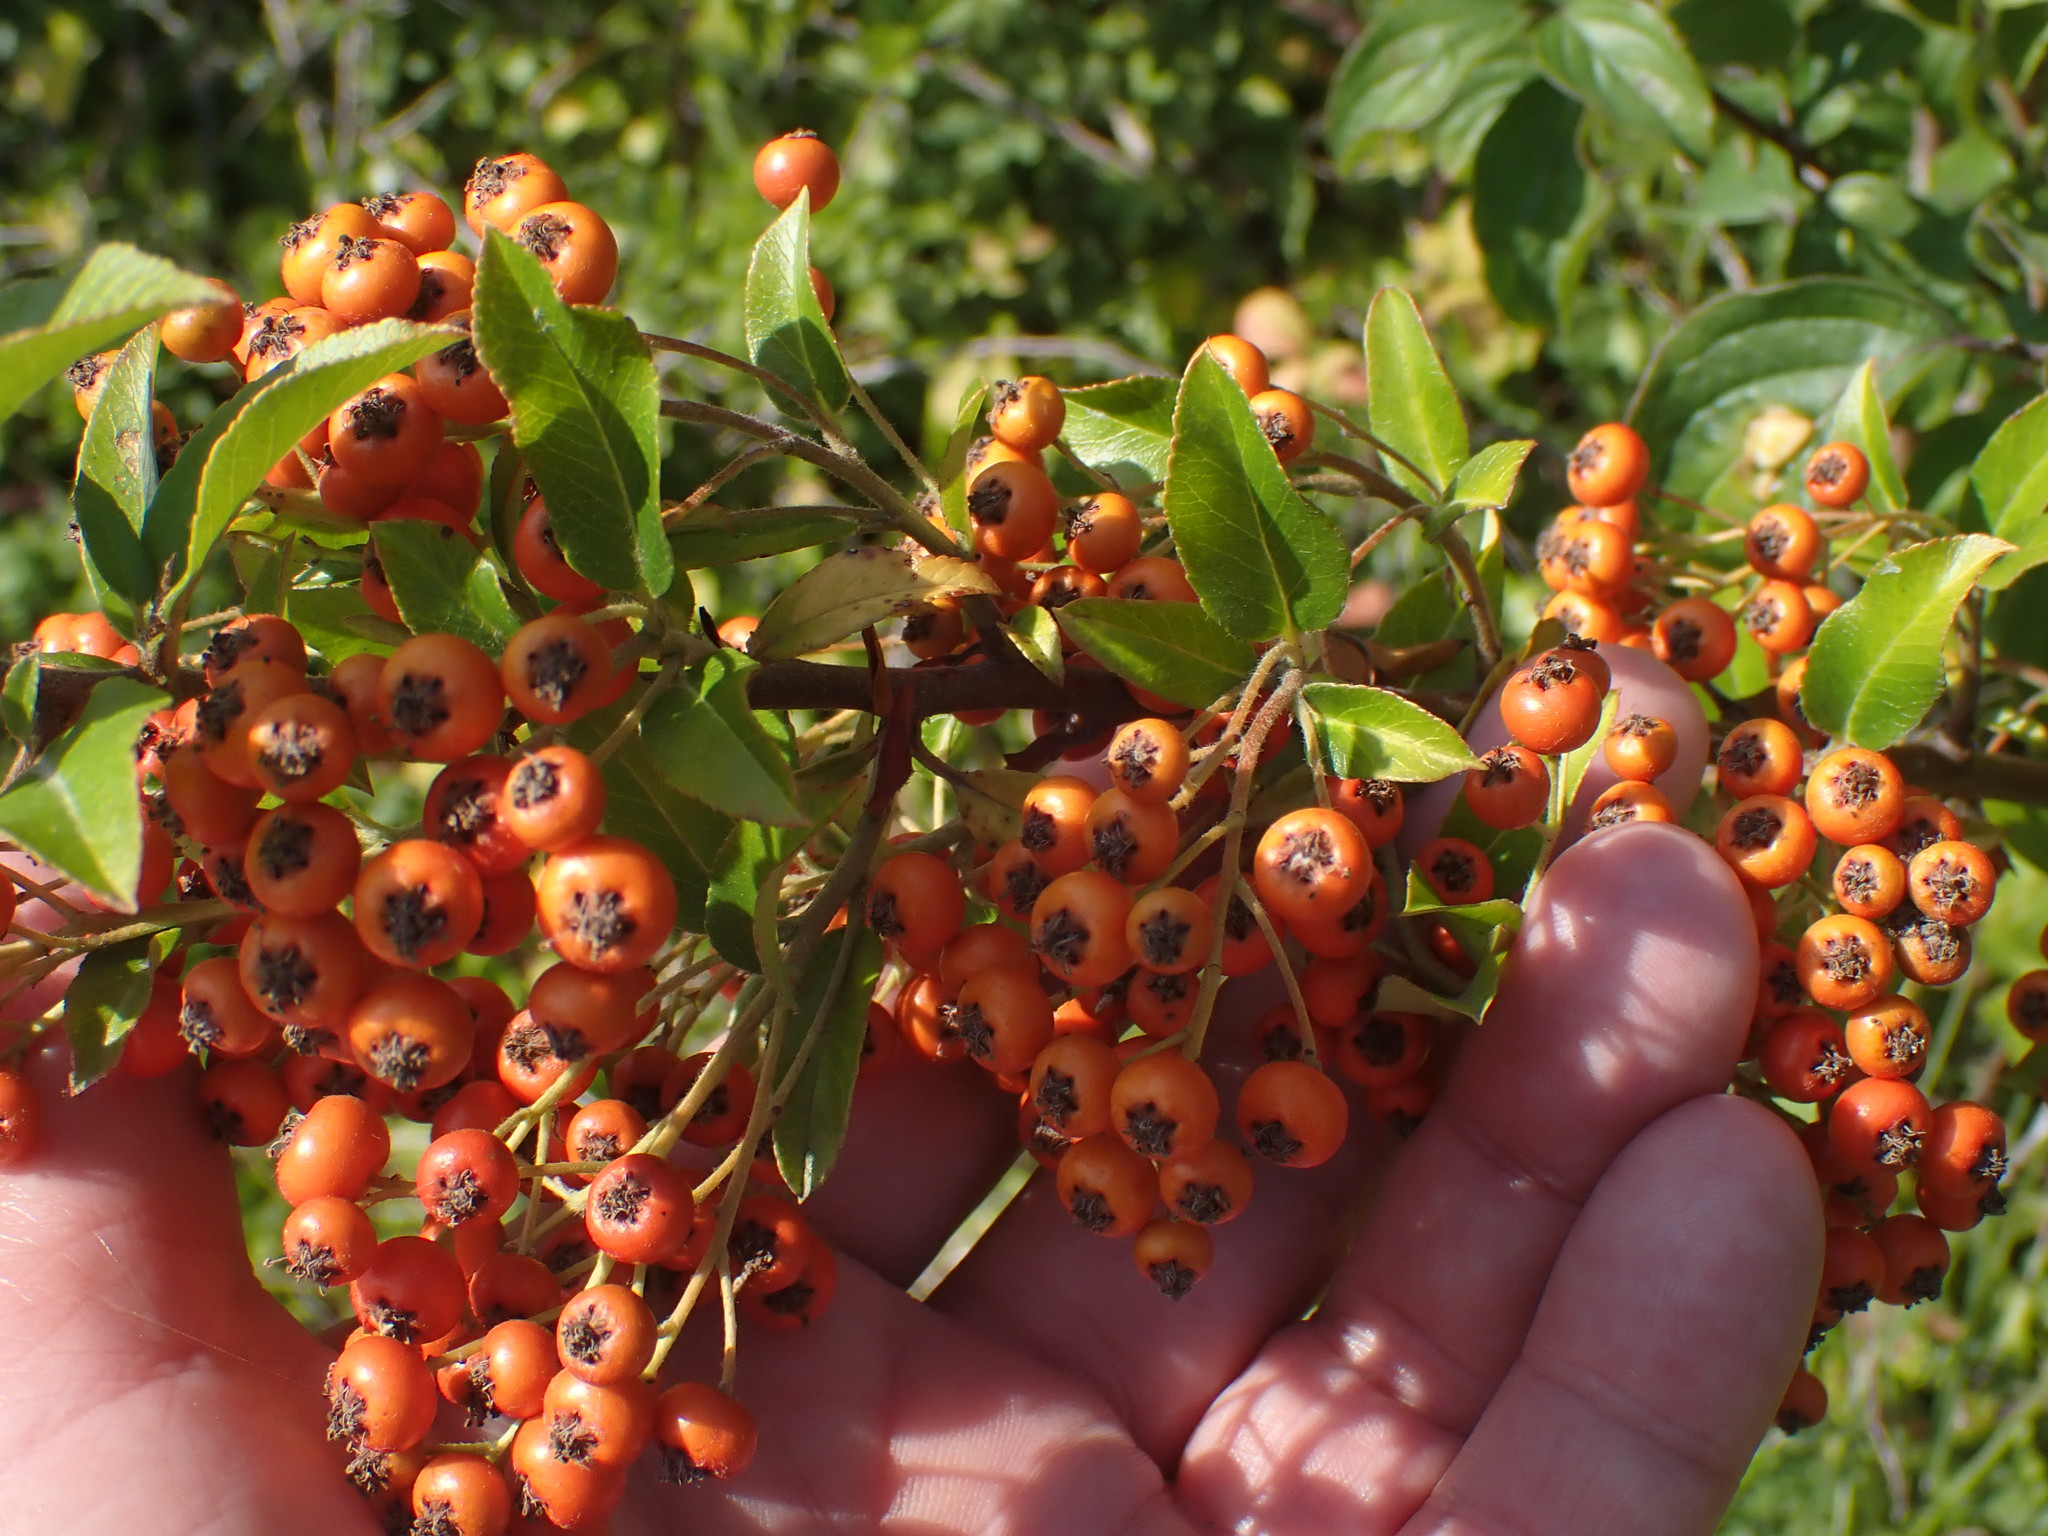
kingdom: Plantae
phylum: Tracheophyta
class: Magnoliopsida
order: Rosales
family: Rosaceae
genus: Pyracantha
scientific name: Pyracantha coccinea
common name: Firethorn
